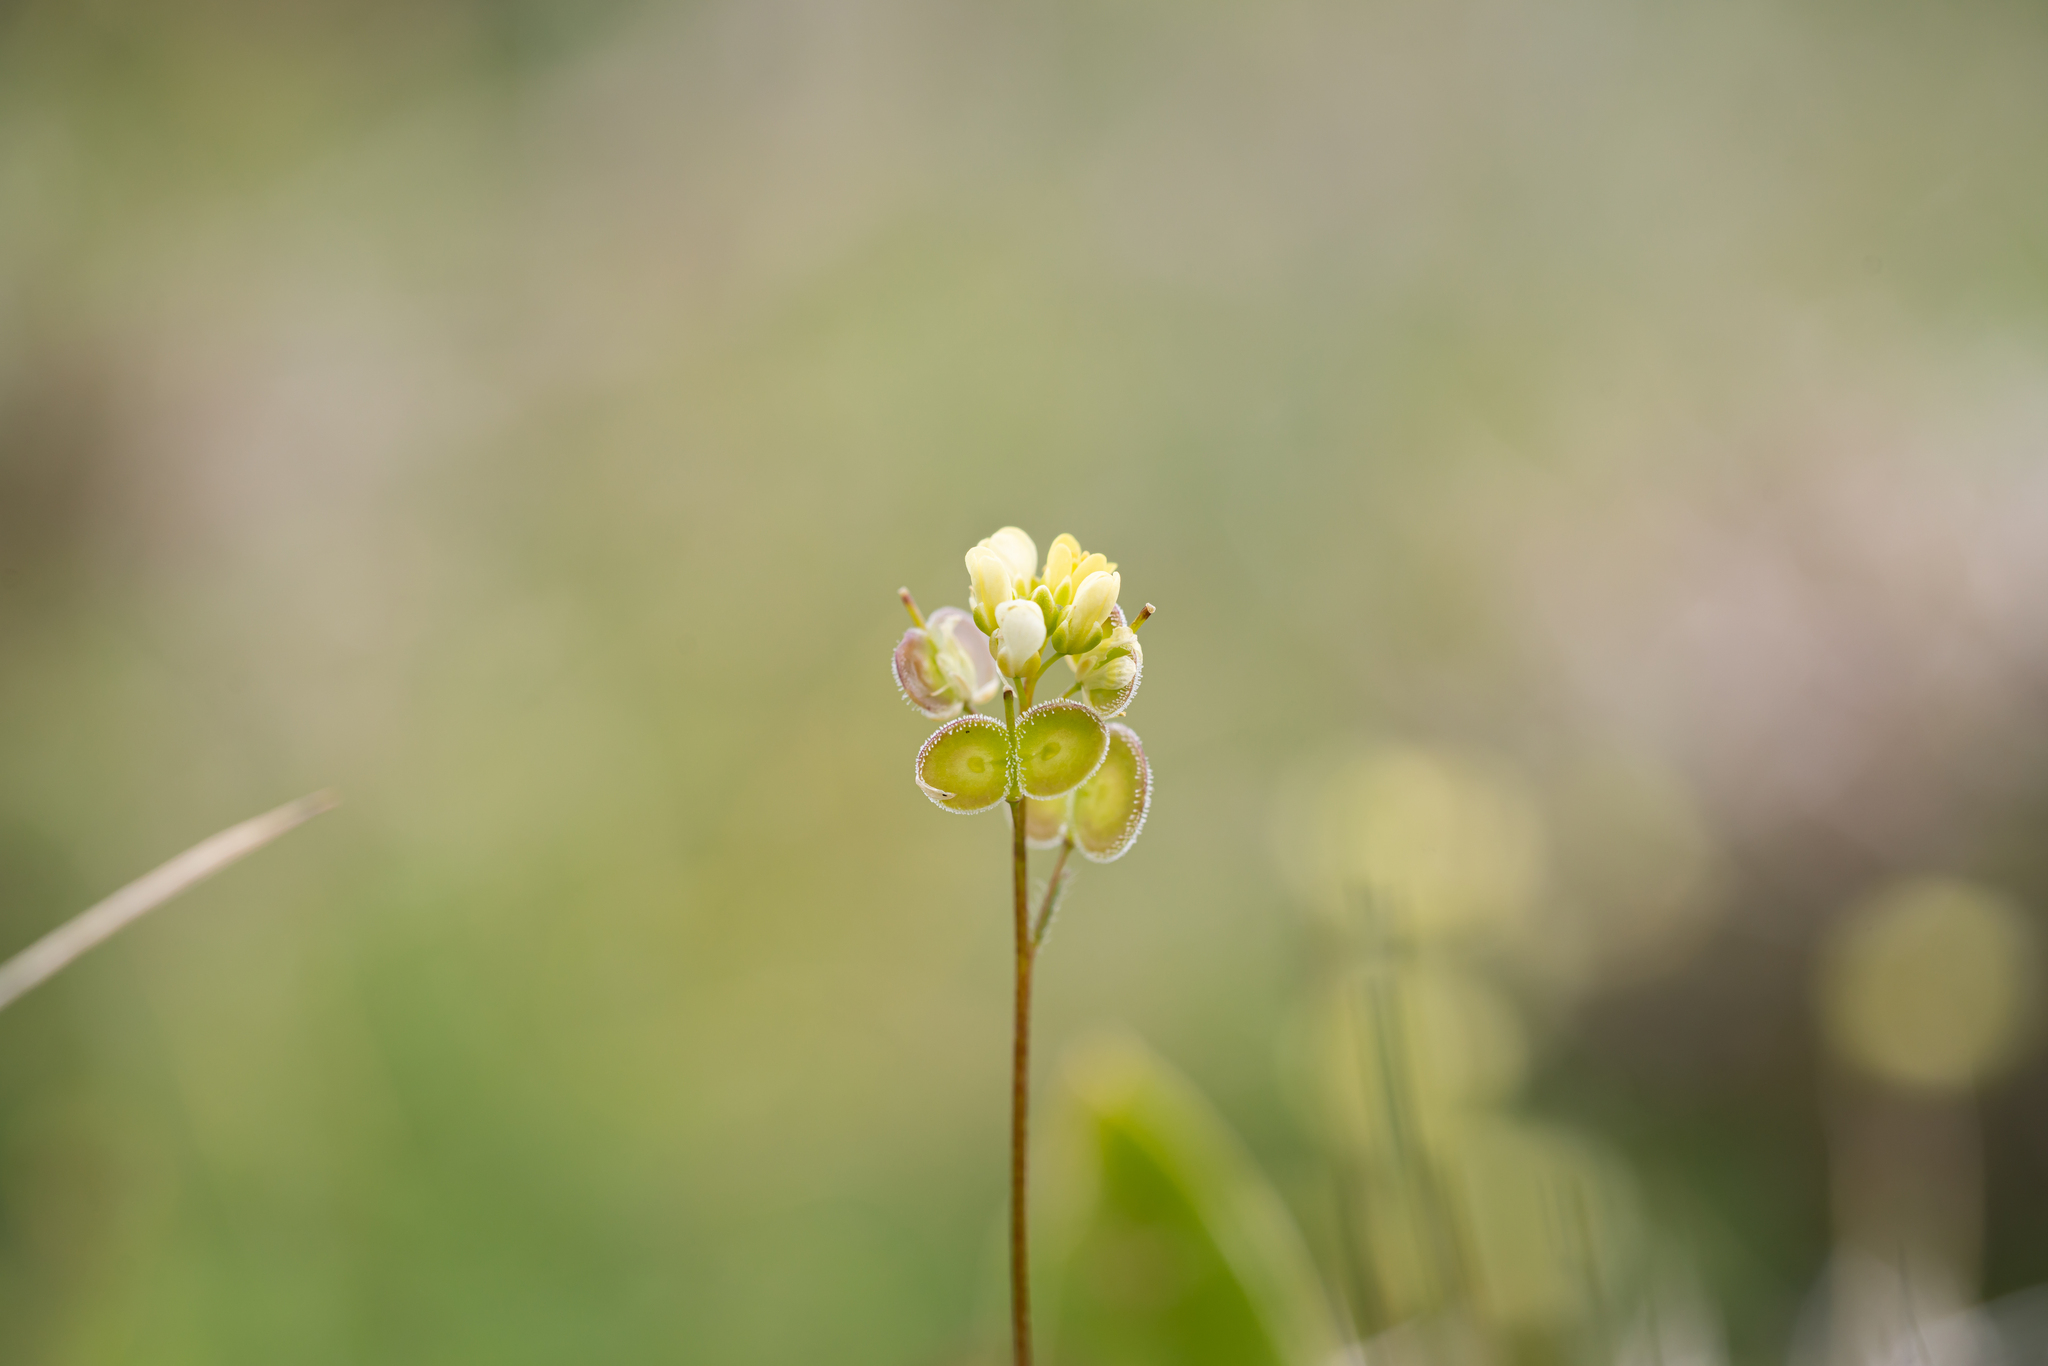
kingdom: Plantae
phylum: Tracheophyta
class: Magnoliopsida
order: Brassicales
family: Brassicaceae
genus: Biscutella
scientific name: Biscutella didyma
